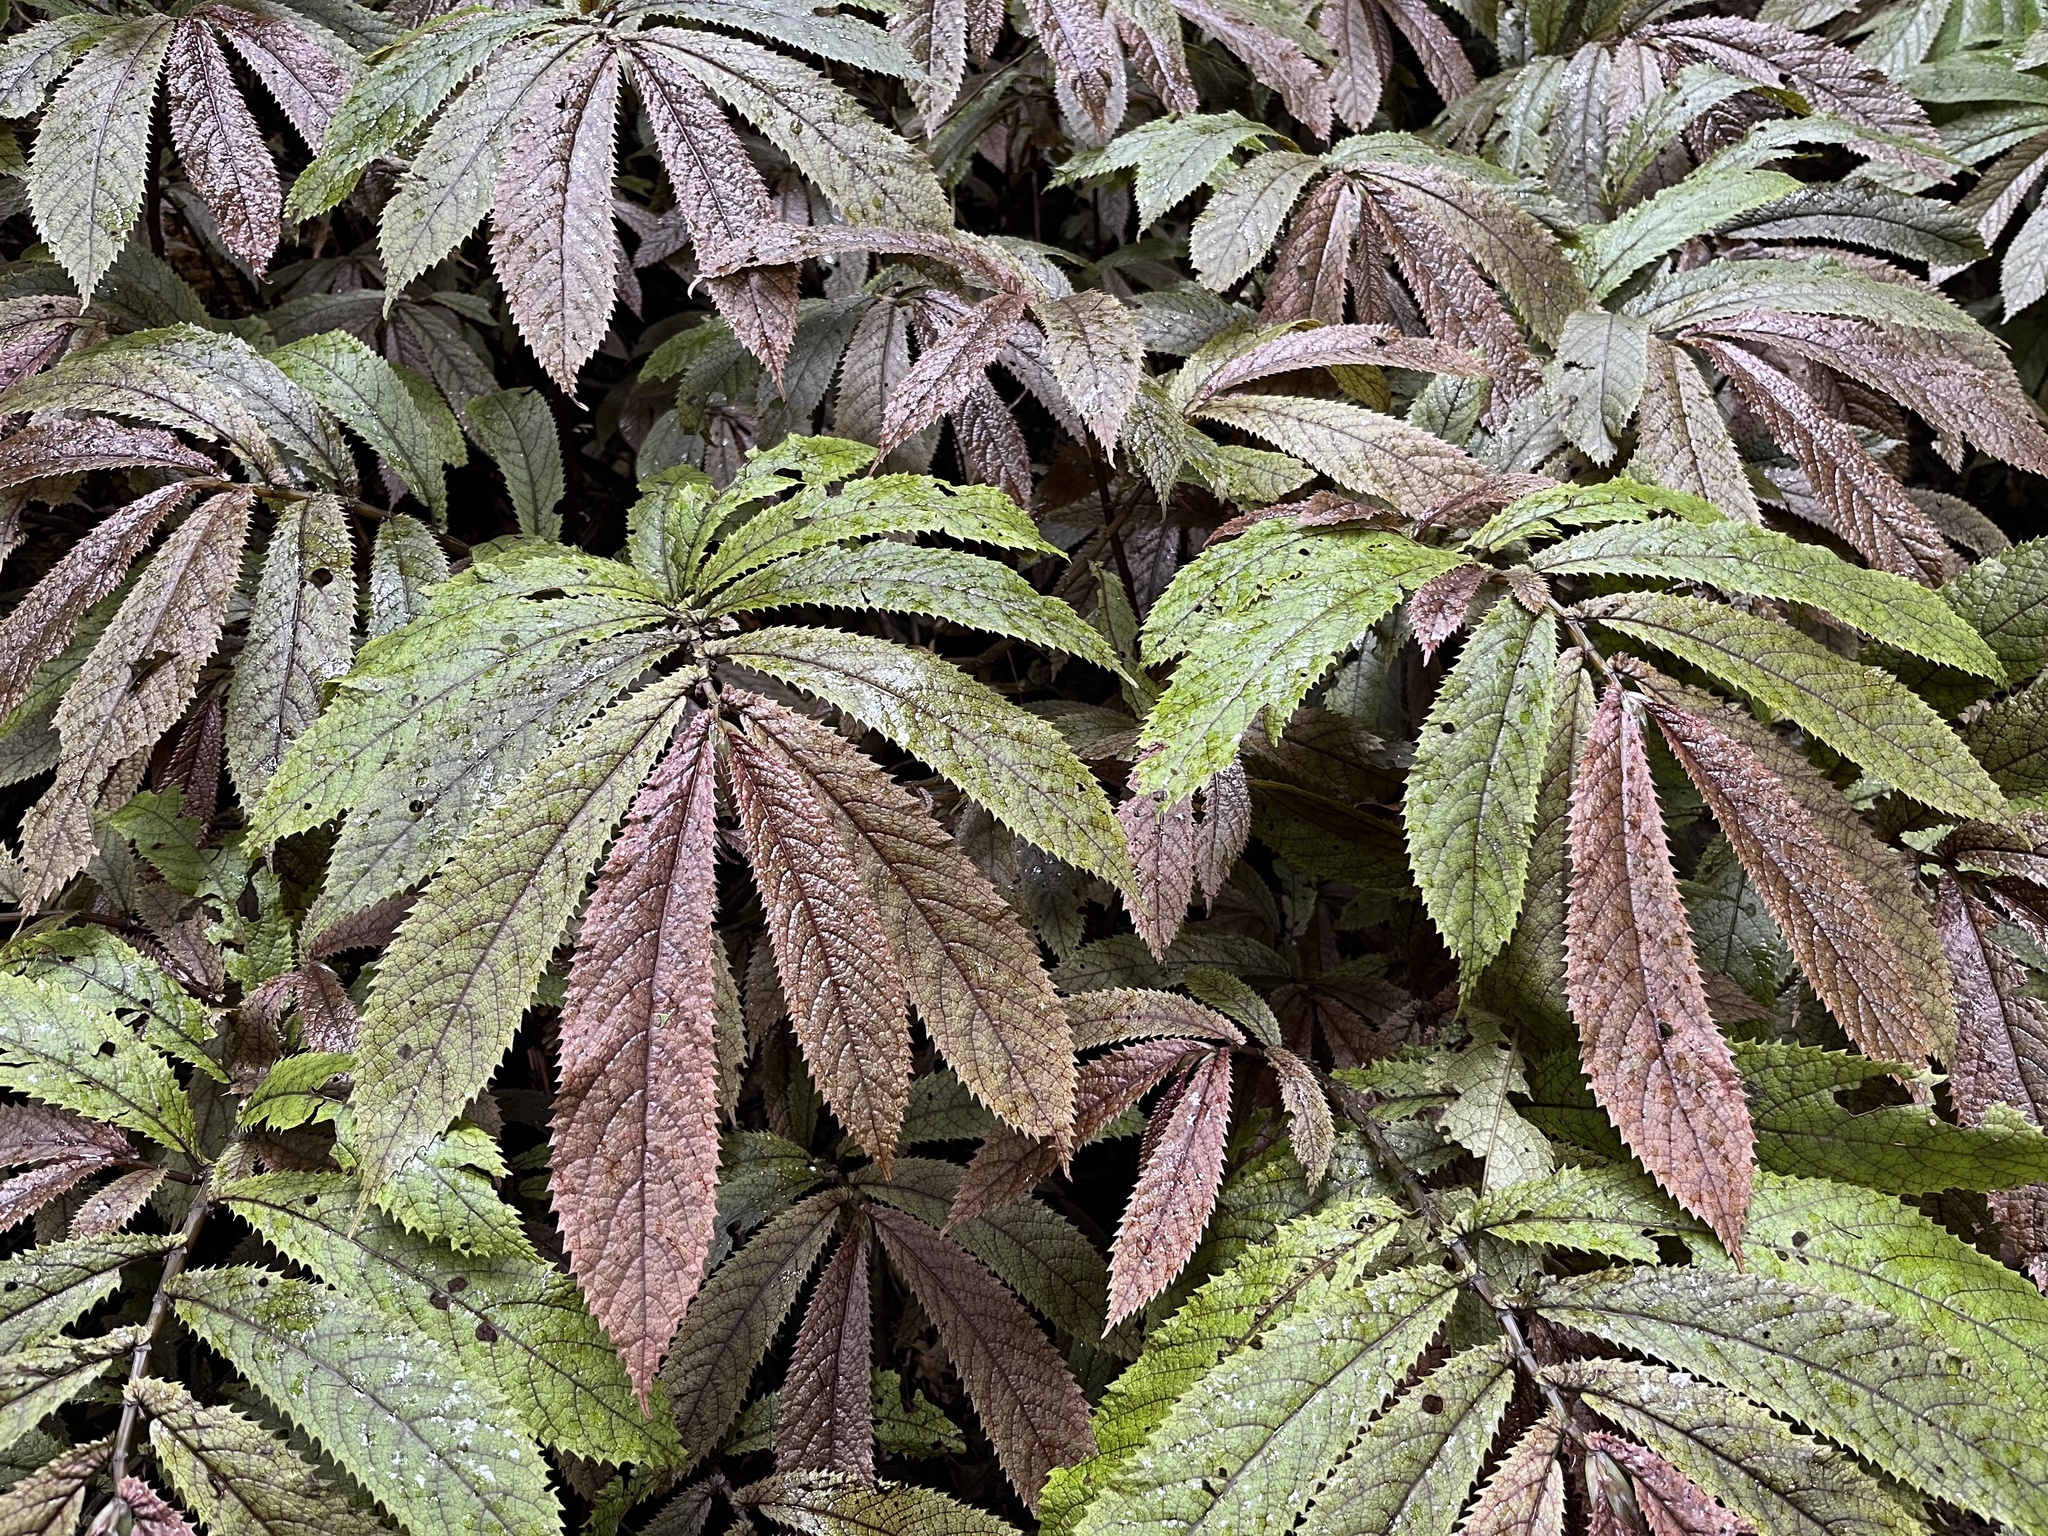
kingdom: Plantae
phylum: Tracheophyta
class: Magnoliopsida
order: Rosales
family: Urticaceae
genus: Elatostema
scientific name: Elatostema rugosum
